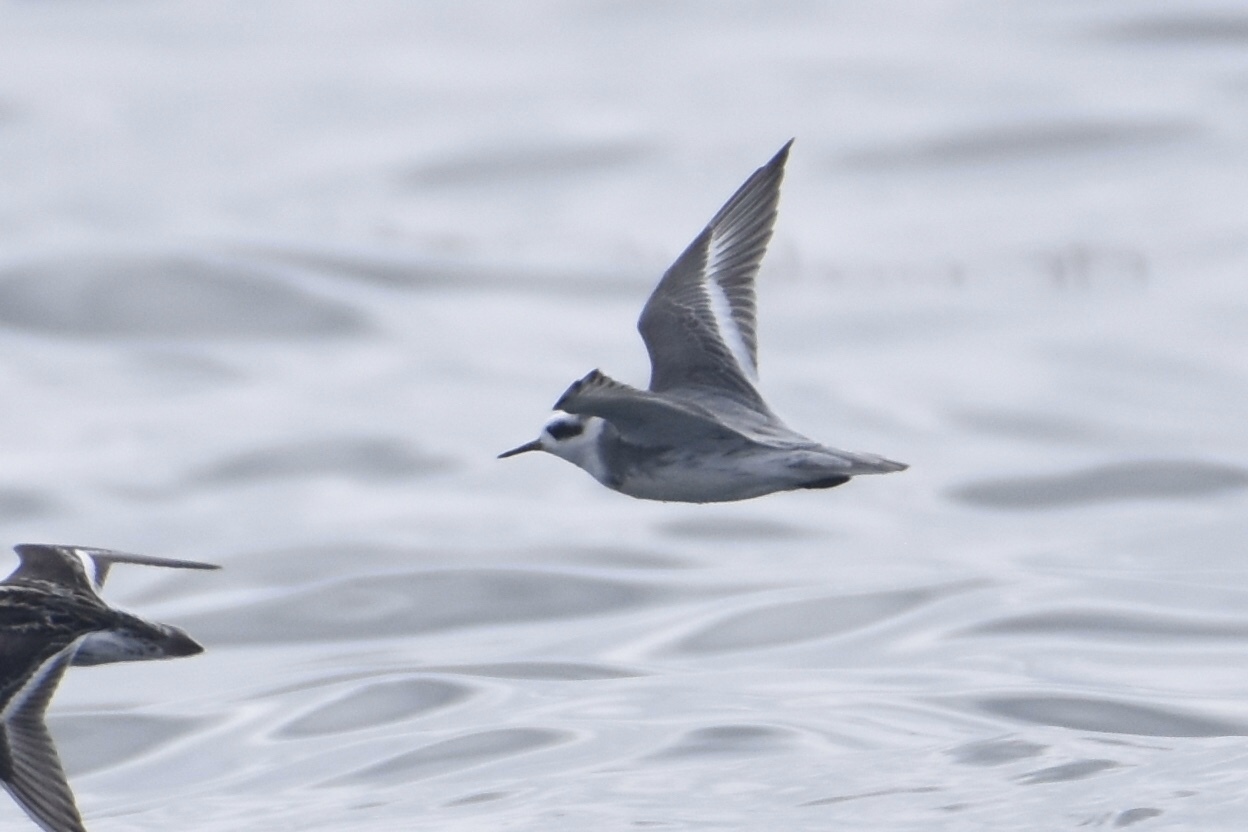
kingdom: Animalia
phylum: Chordata
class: Aves
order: Charadriiformes
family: Scolopacidae
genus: Phalaropus
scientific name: Phalaropus fulicarius
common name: Red phalarope
